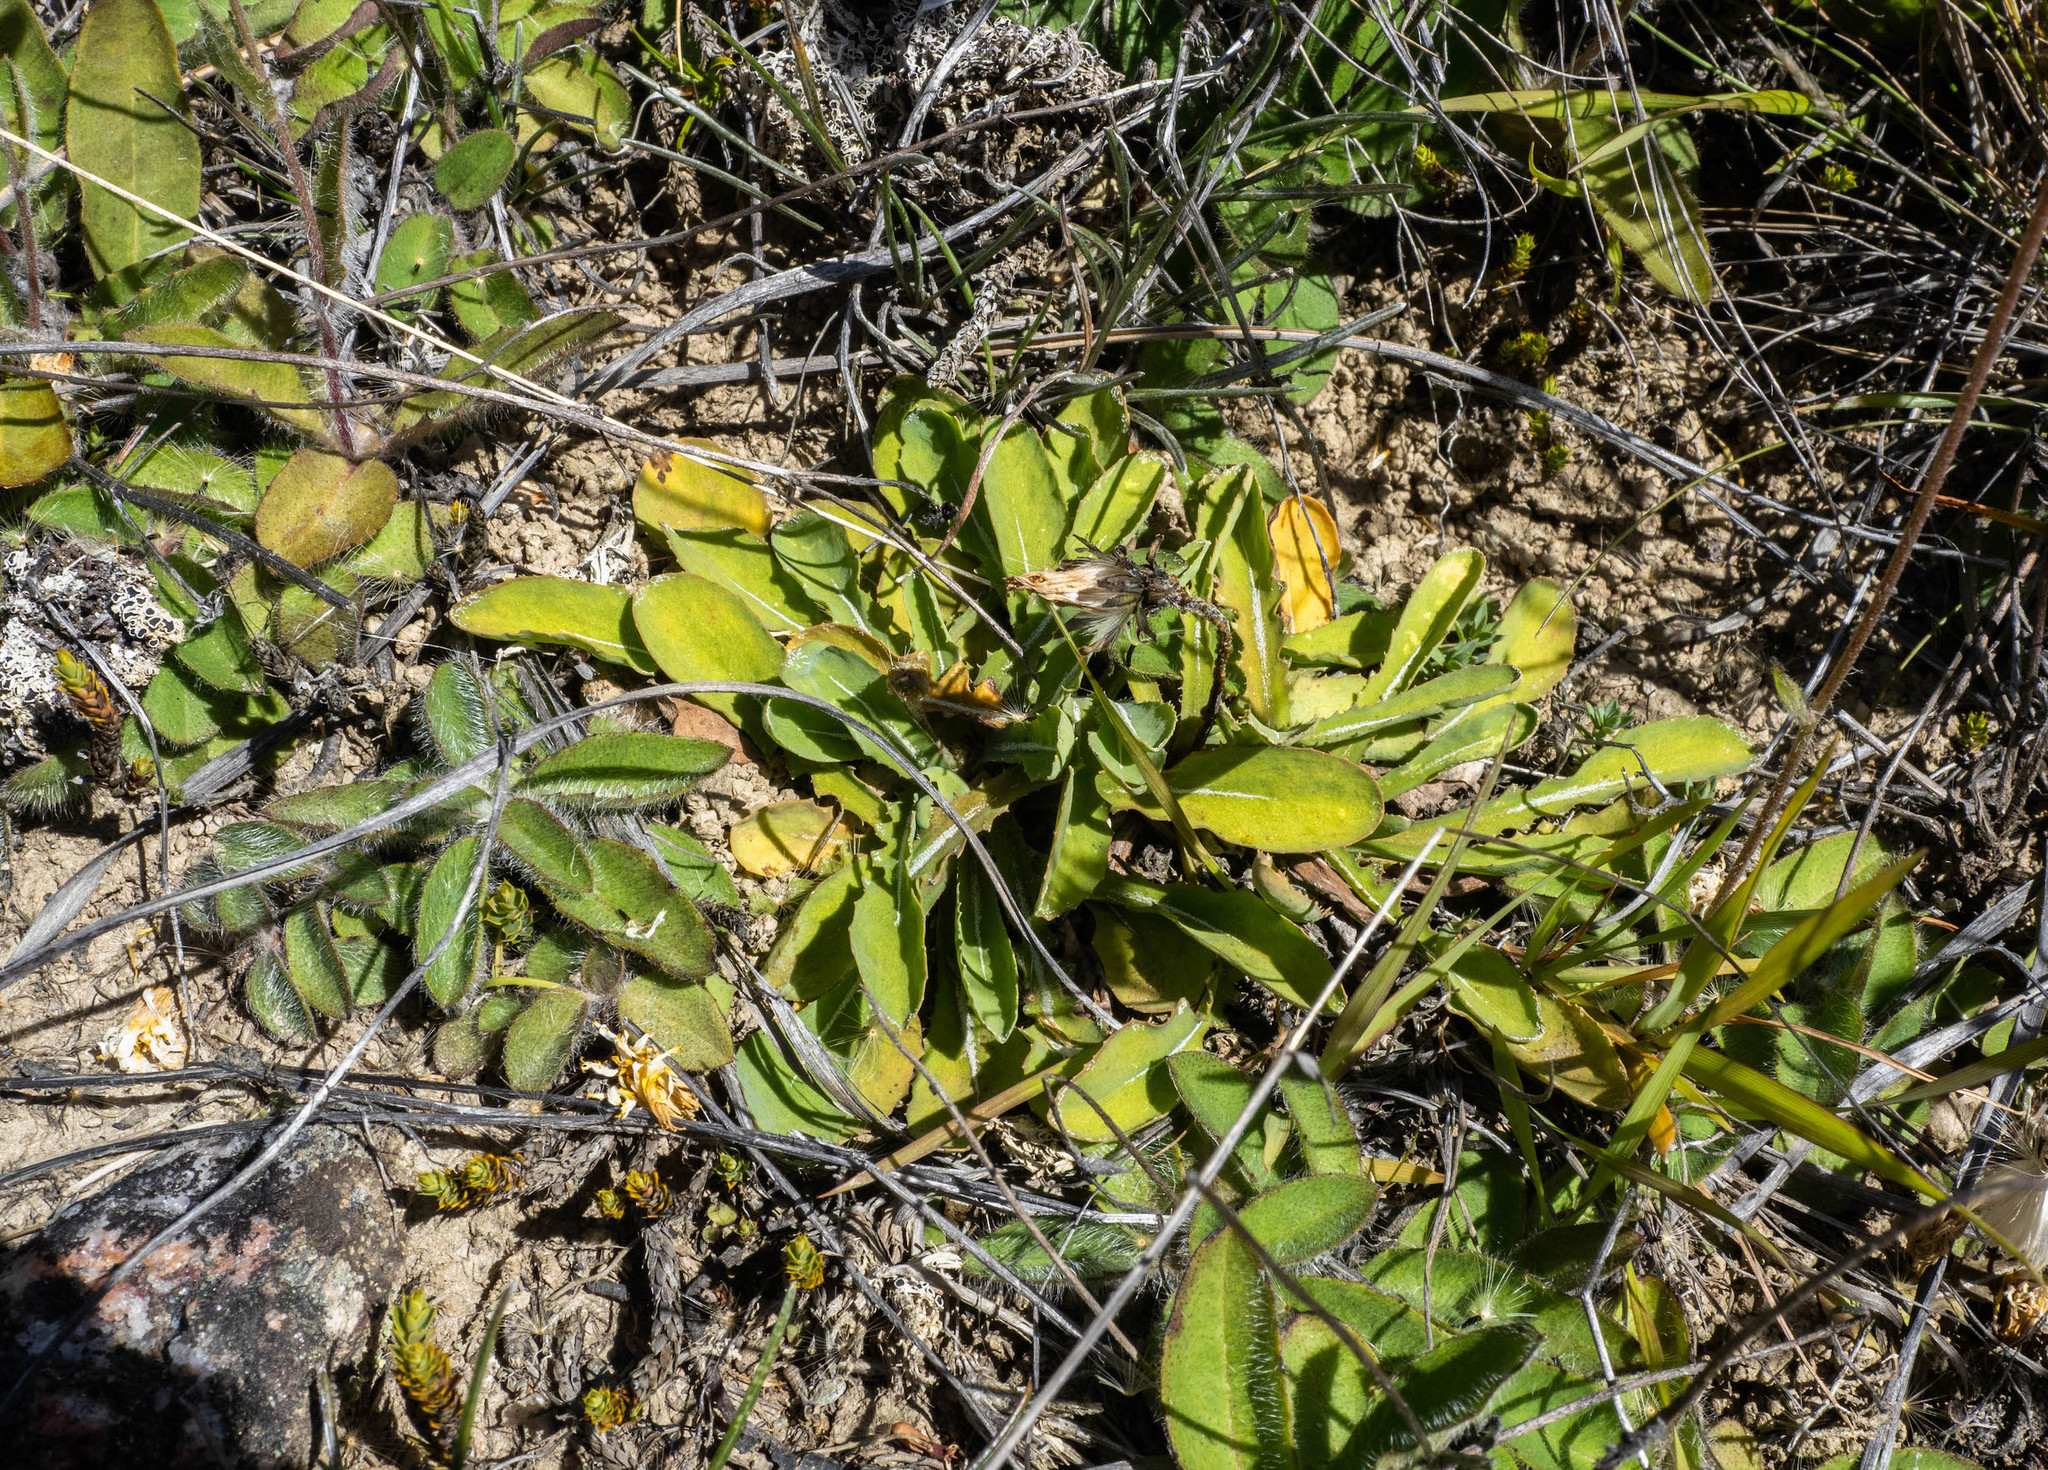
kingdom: Plantae
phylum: Tracheophyta
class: Magnoliopsida
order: Asterales
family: Asteraceae
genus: Sonchus
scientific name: Sonchus novae-zelandiae
